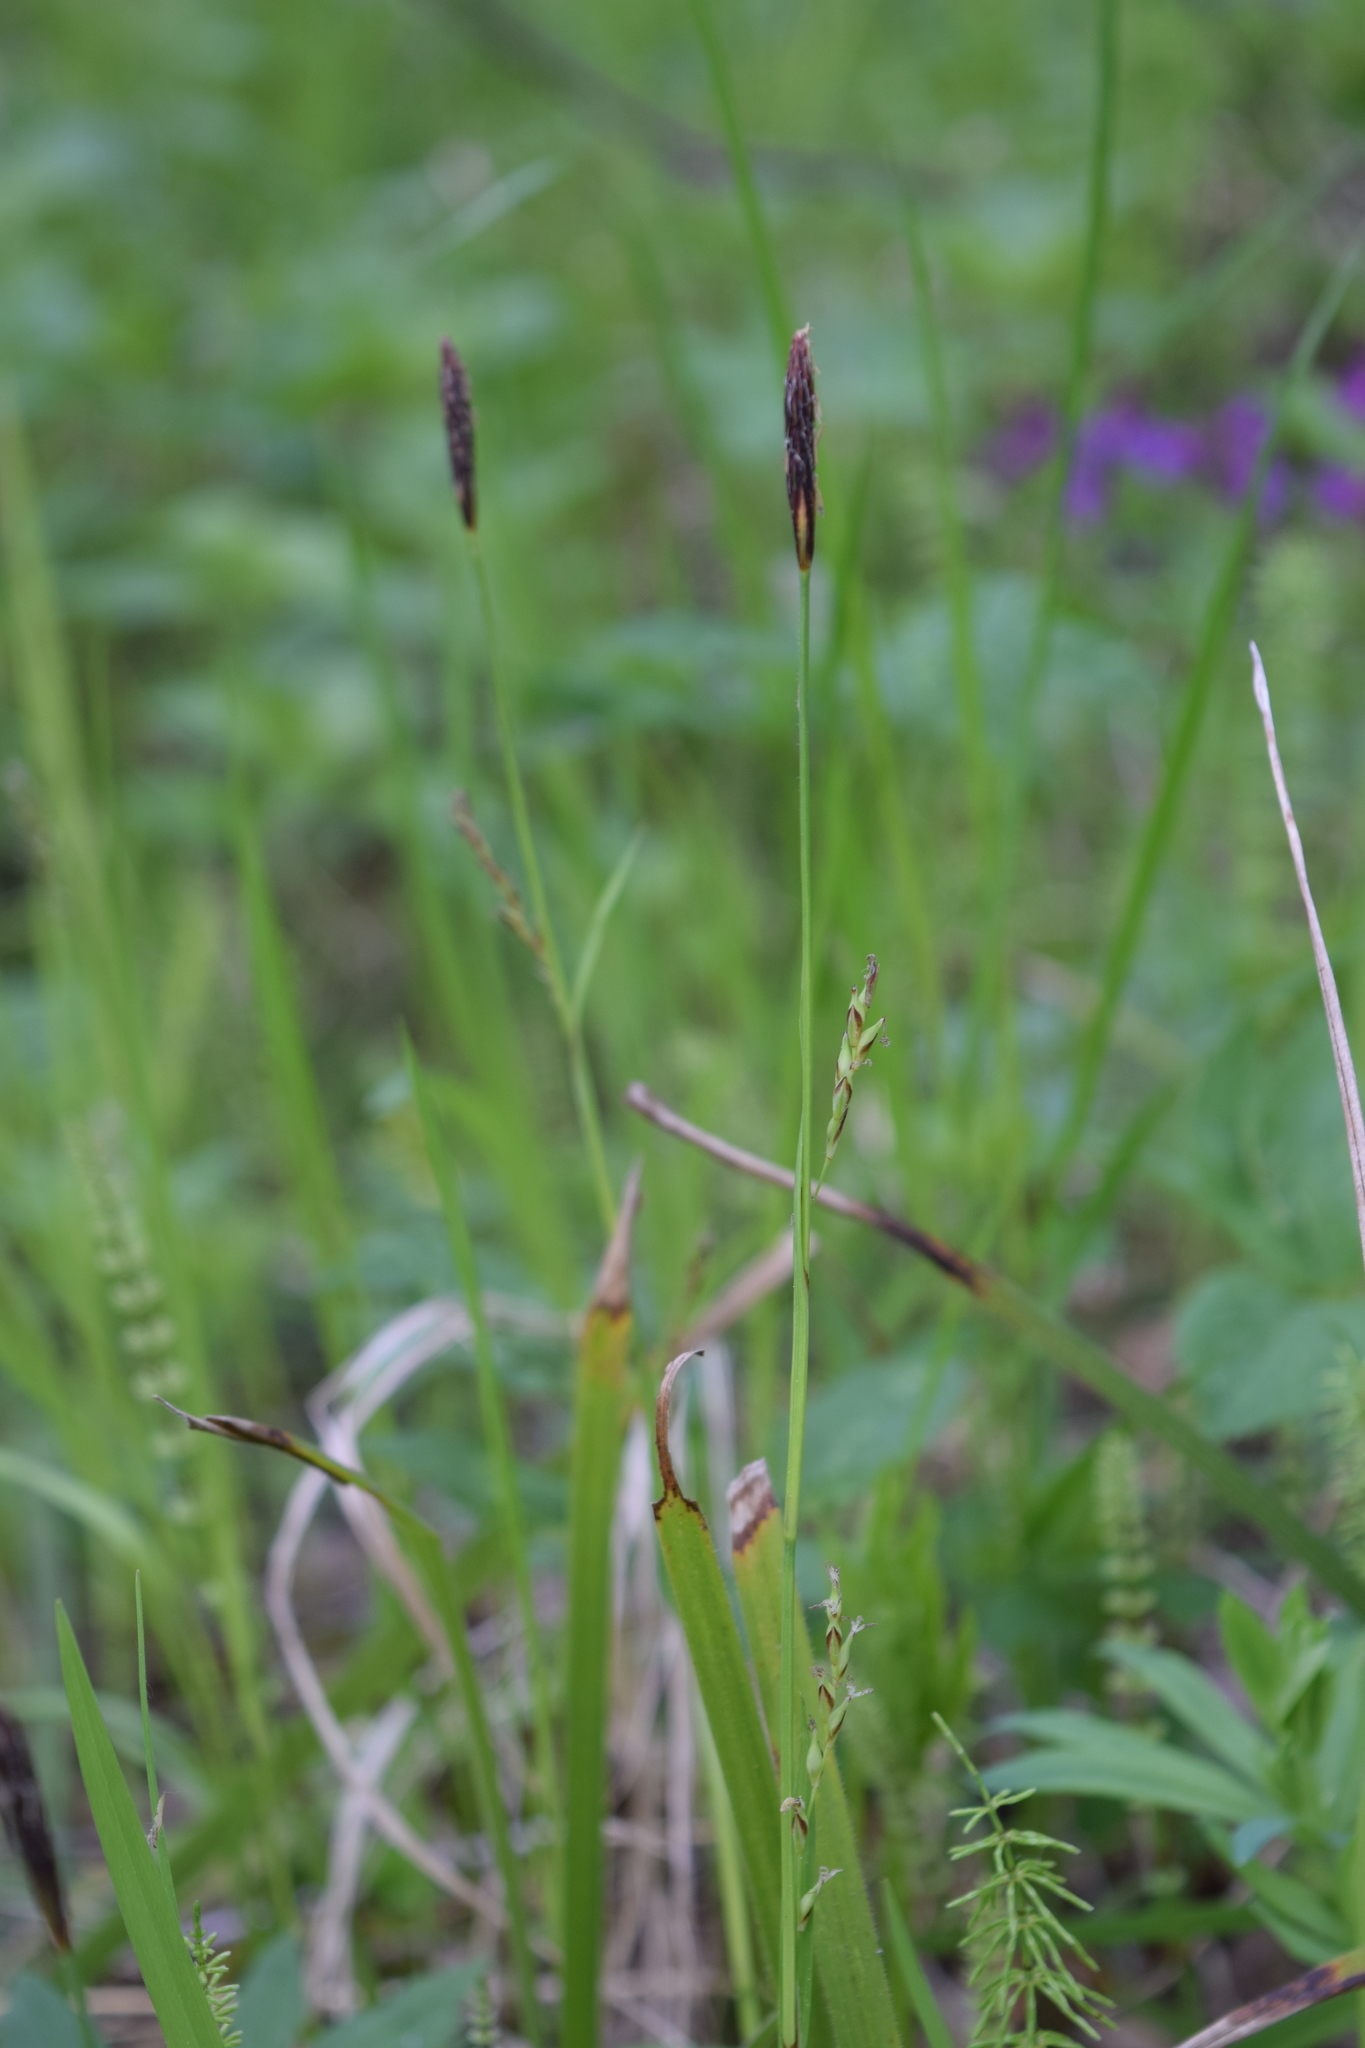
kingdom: Plantae
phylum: Tracheophyta
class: Liliopsida
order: Poales
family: Cyperaceae
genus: Carex
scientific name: Carex pilosa
